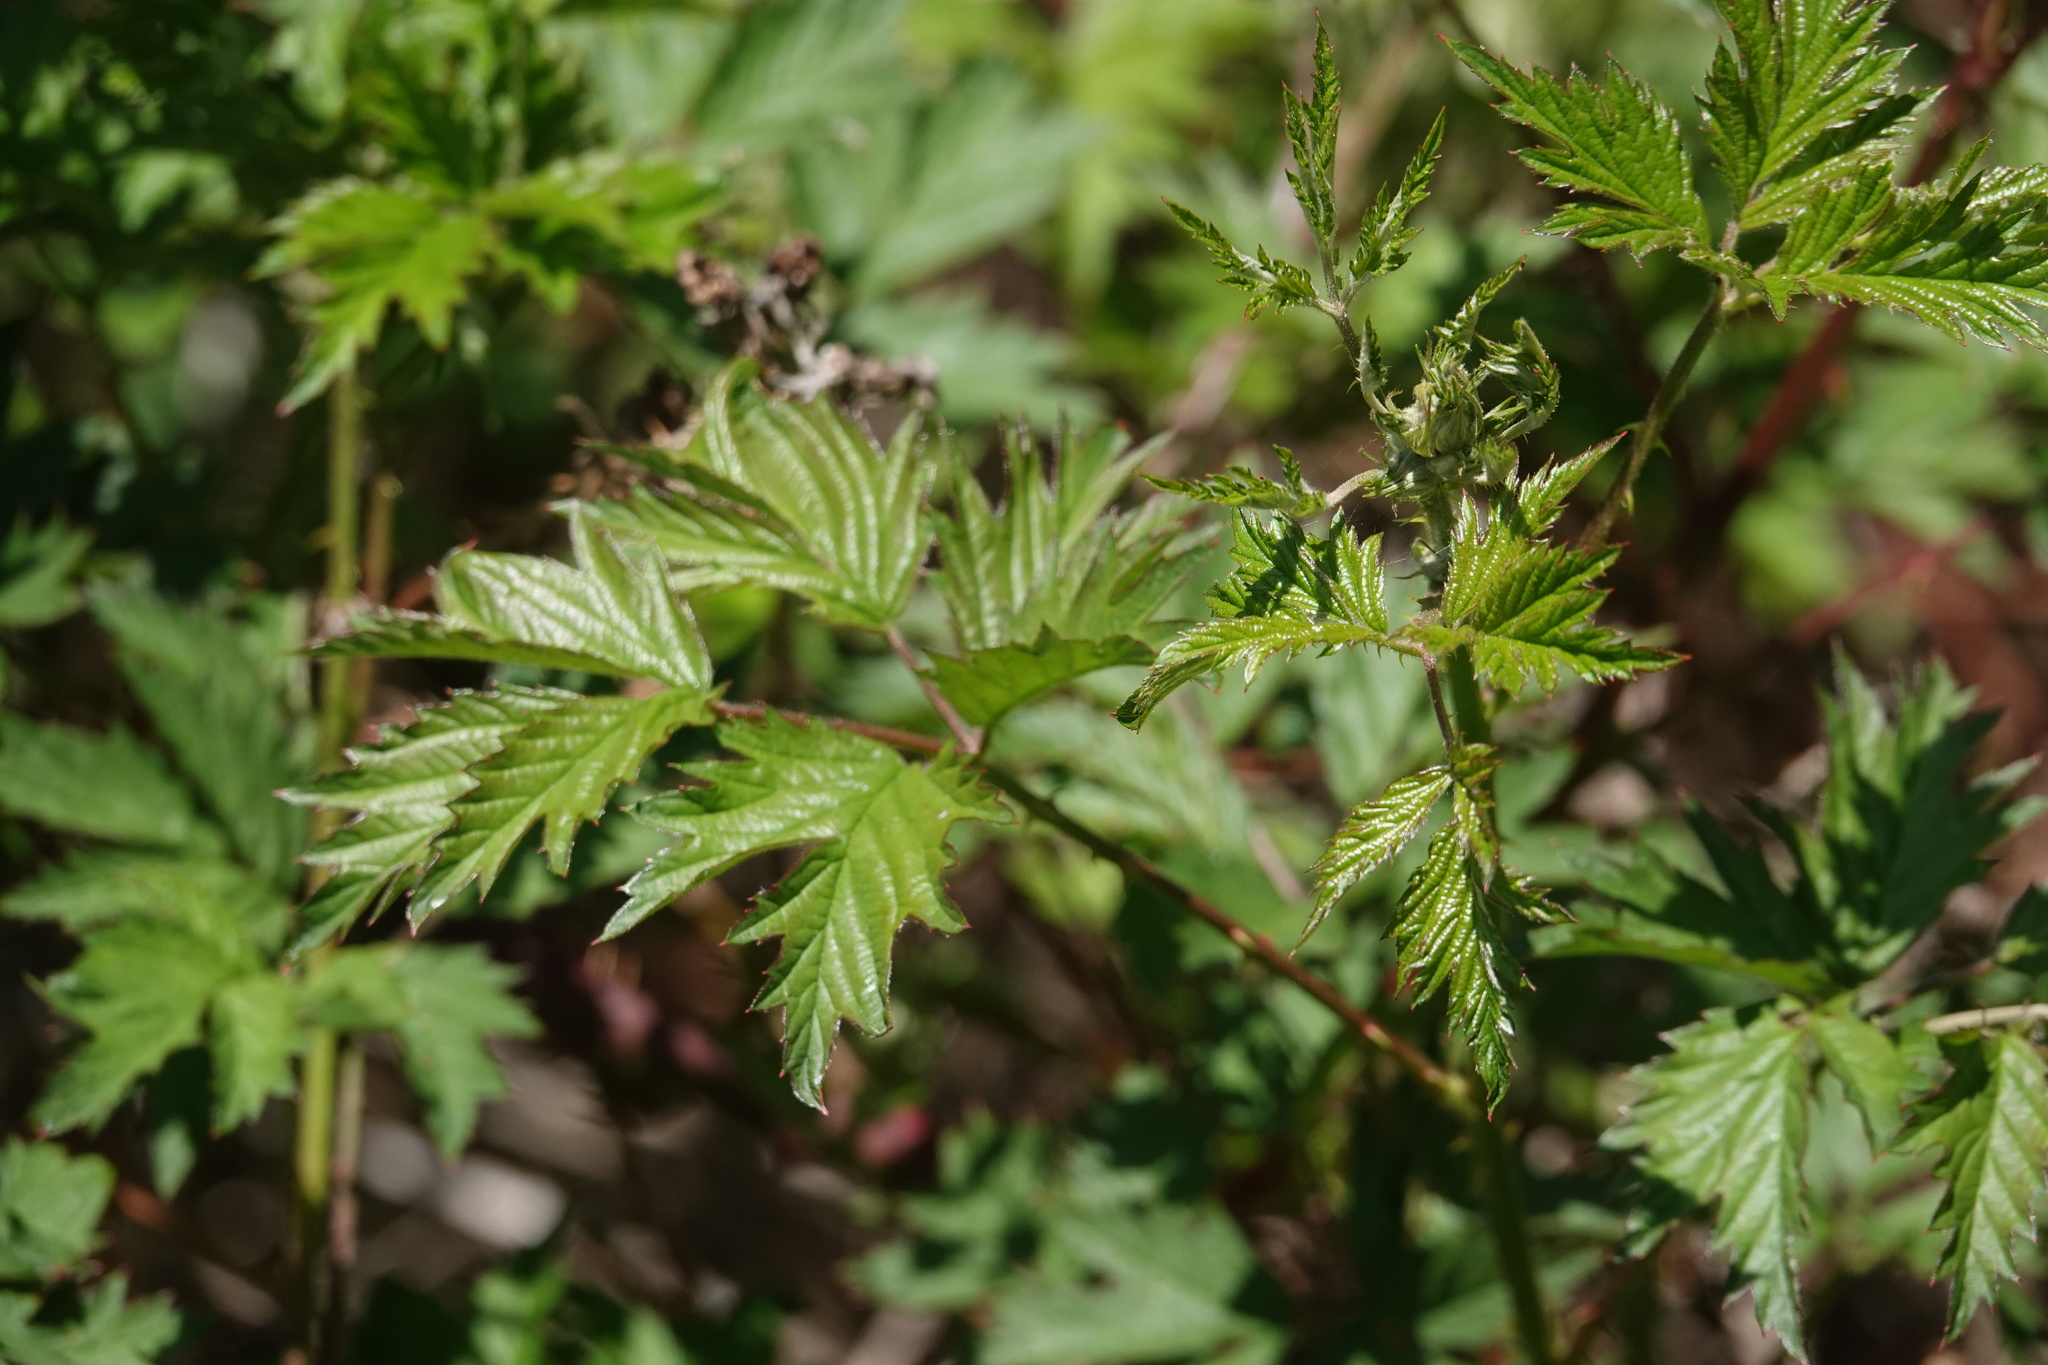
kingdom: Plantae
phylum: Tracheophyta
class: Magnoliopsida
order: Rosales
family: Rosaceae
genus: Rubus
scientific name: Rubus laciniatus
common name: Evergreen blackberry
